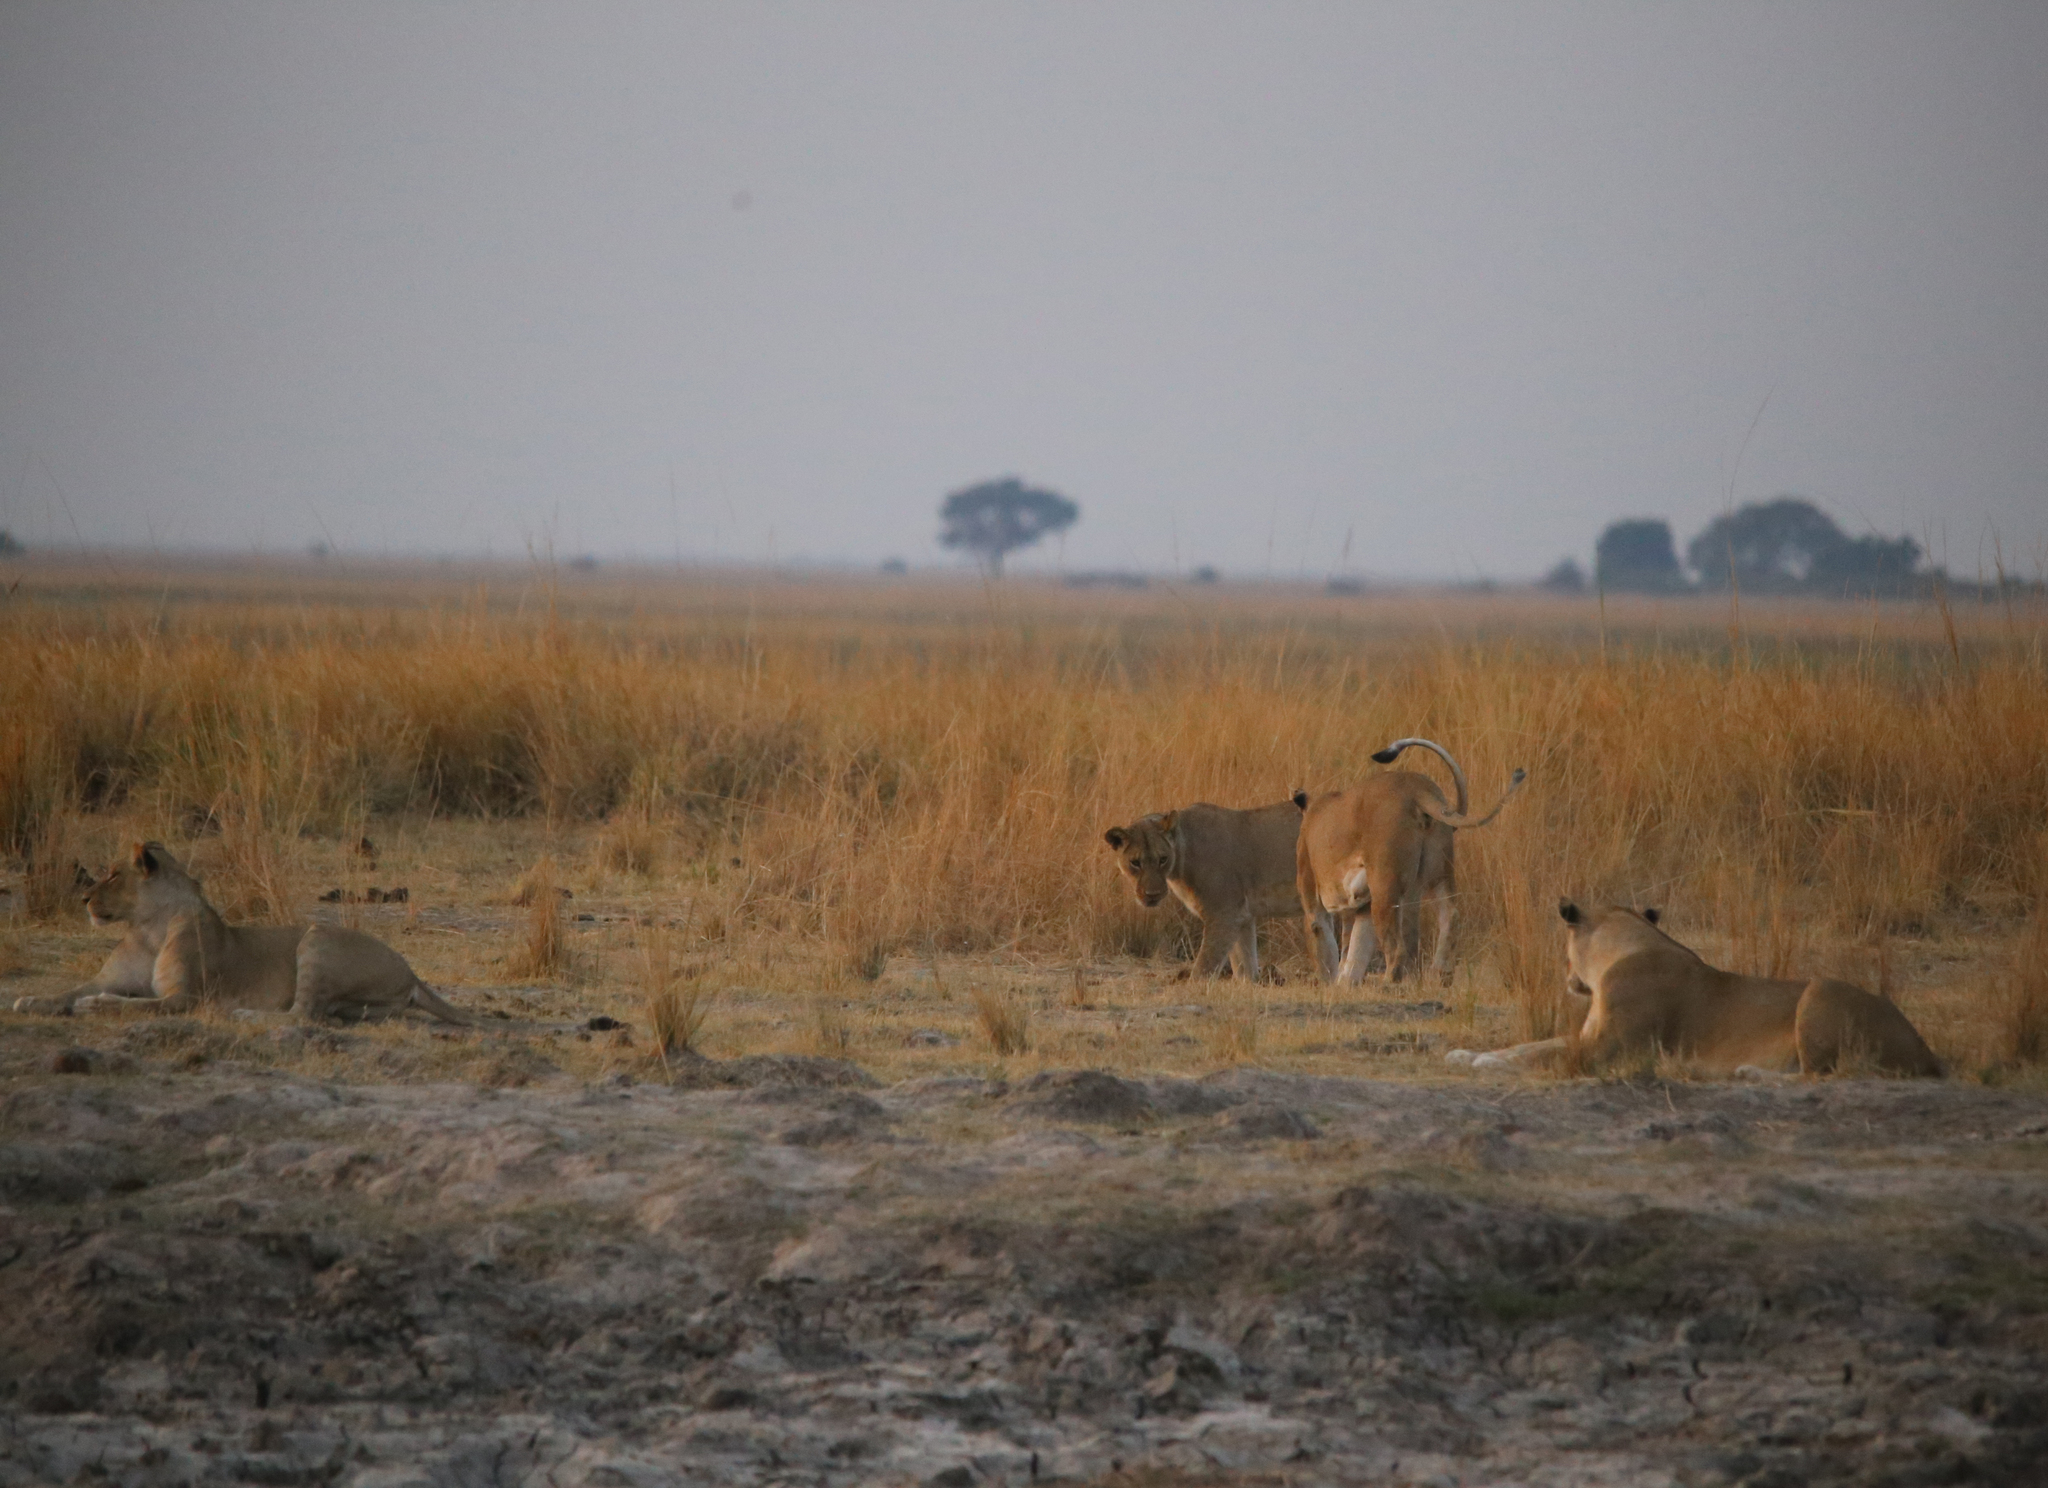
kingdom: Animalia
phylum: Chordata
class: Mammalia
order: Carnivora
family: Felidae
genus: Panthera
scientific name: Panthera leo
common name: Lion
